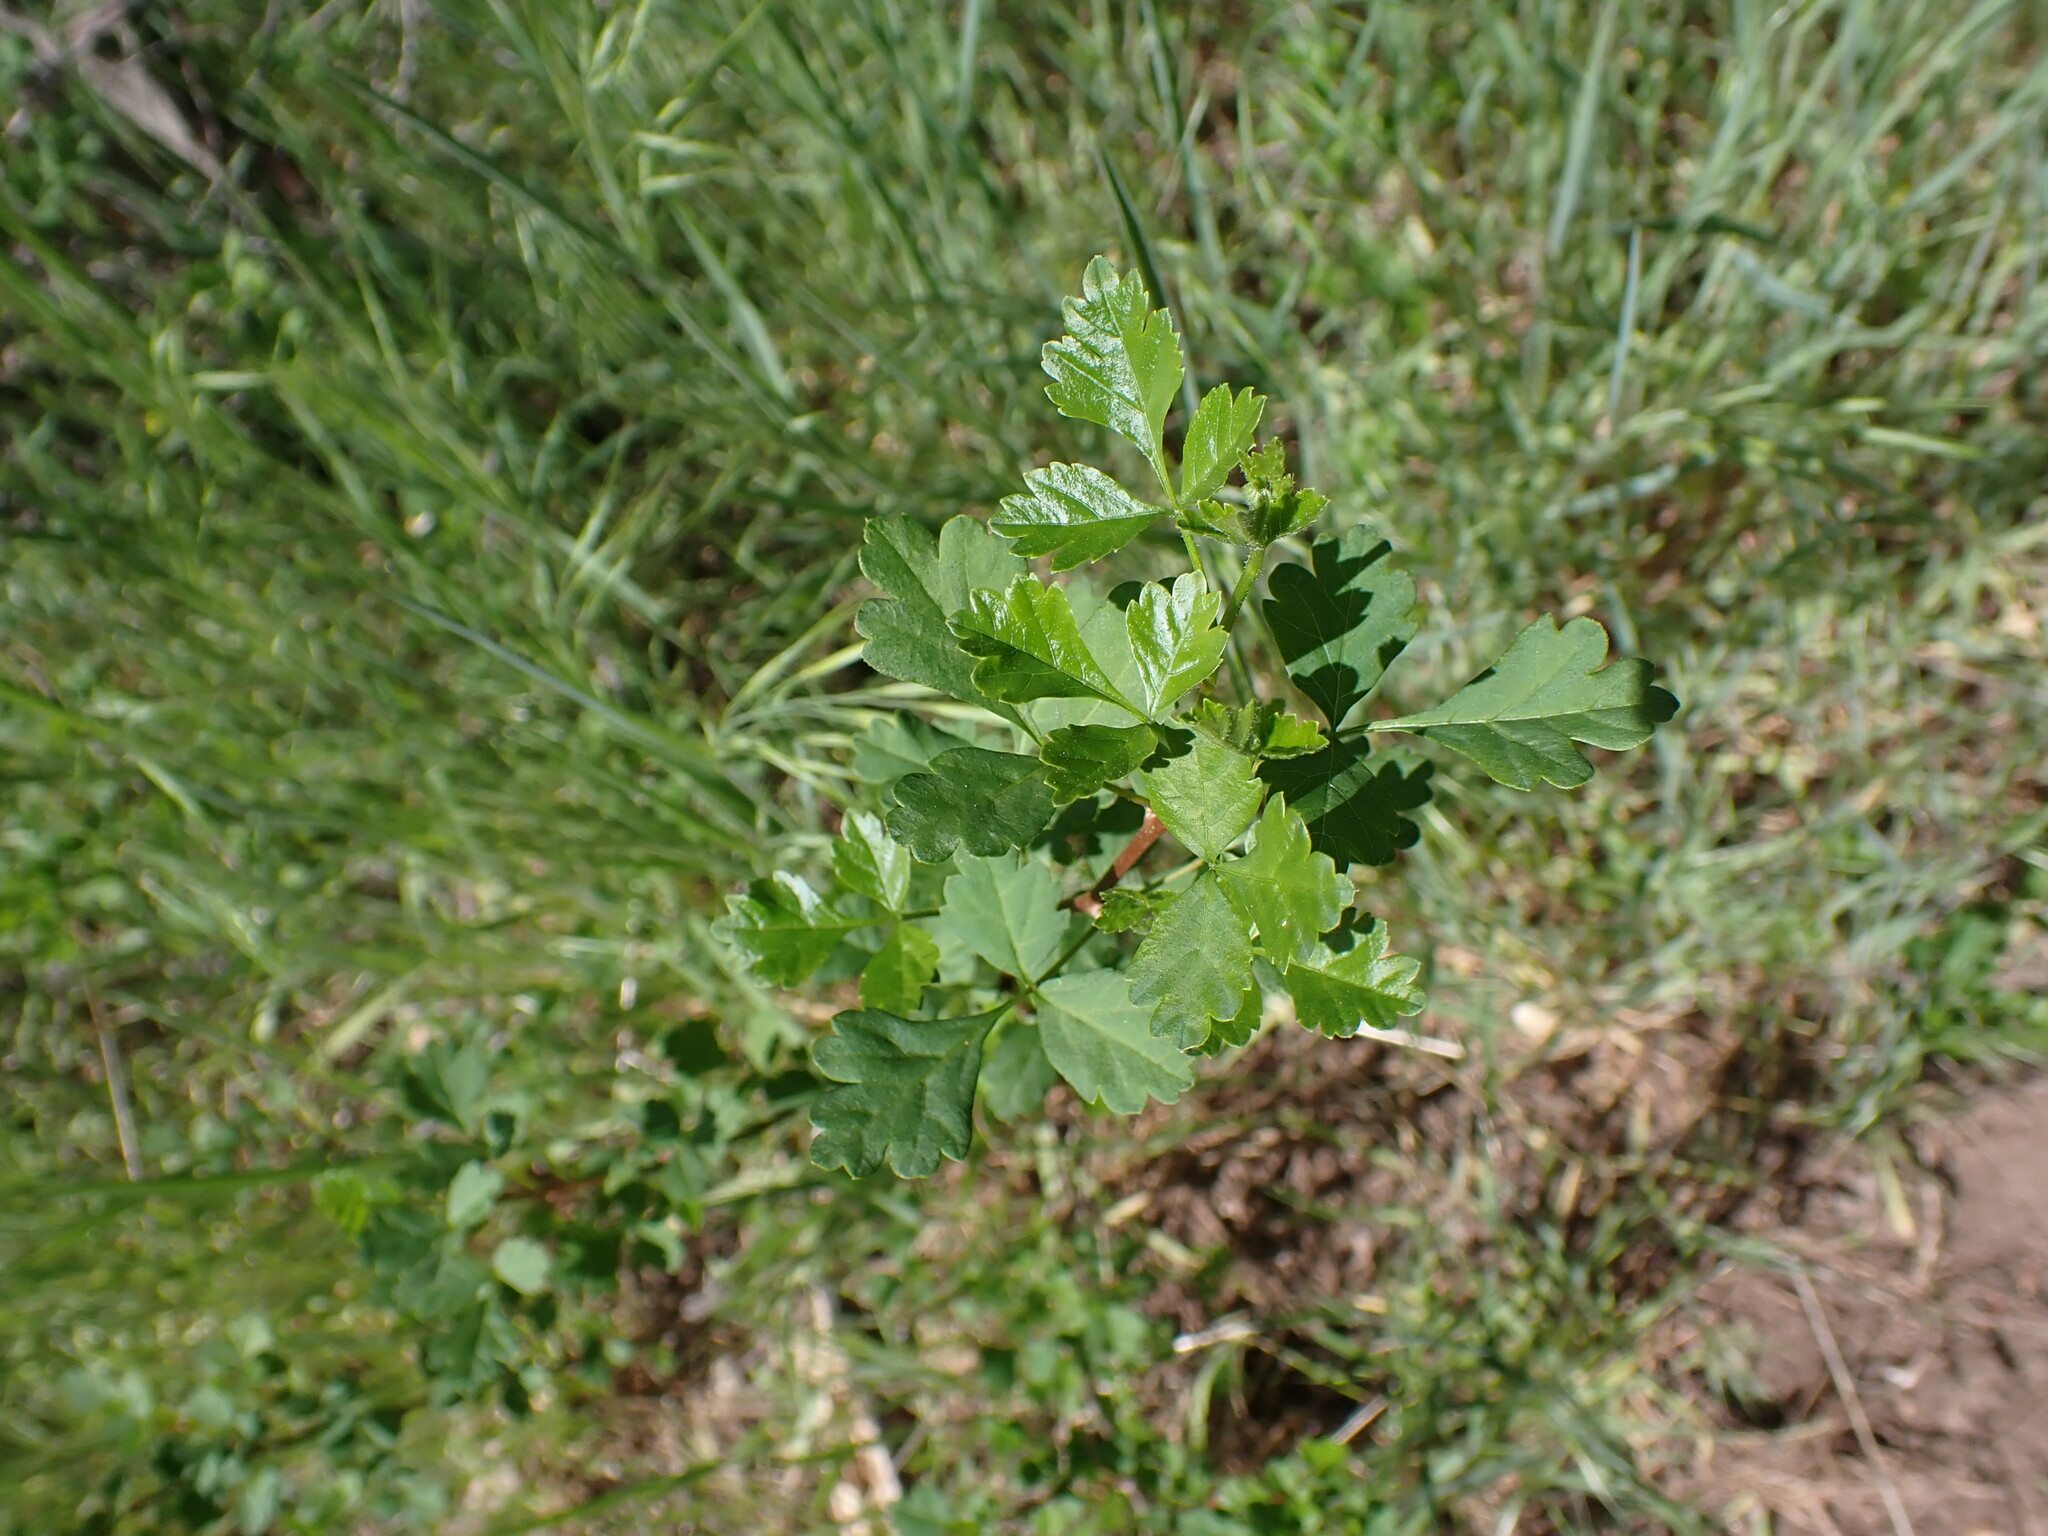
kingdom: Plantae
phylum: Tracheophyta
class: Magnoliopsida
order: Sapindales
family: Anacardiaceae
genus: Rhus
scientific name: Rhus aromatica
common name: Aromatic sumac
